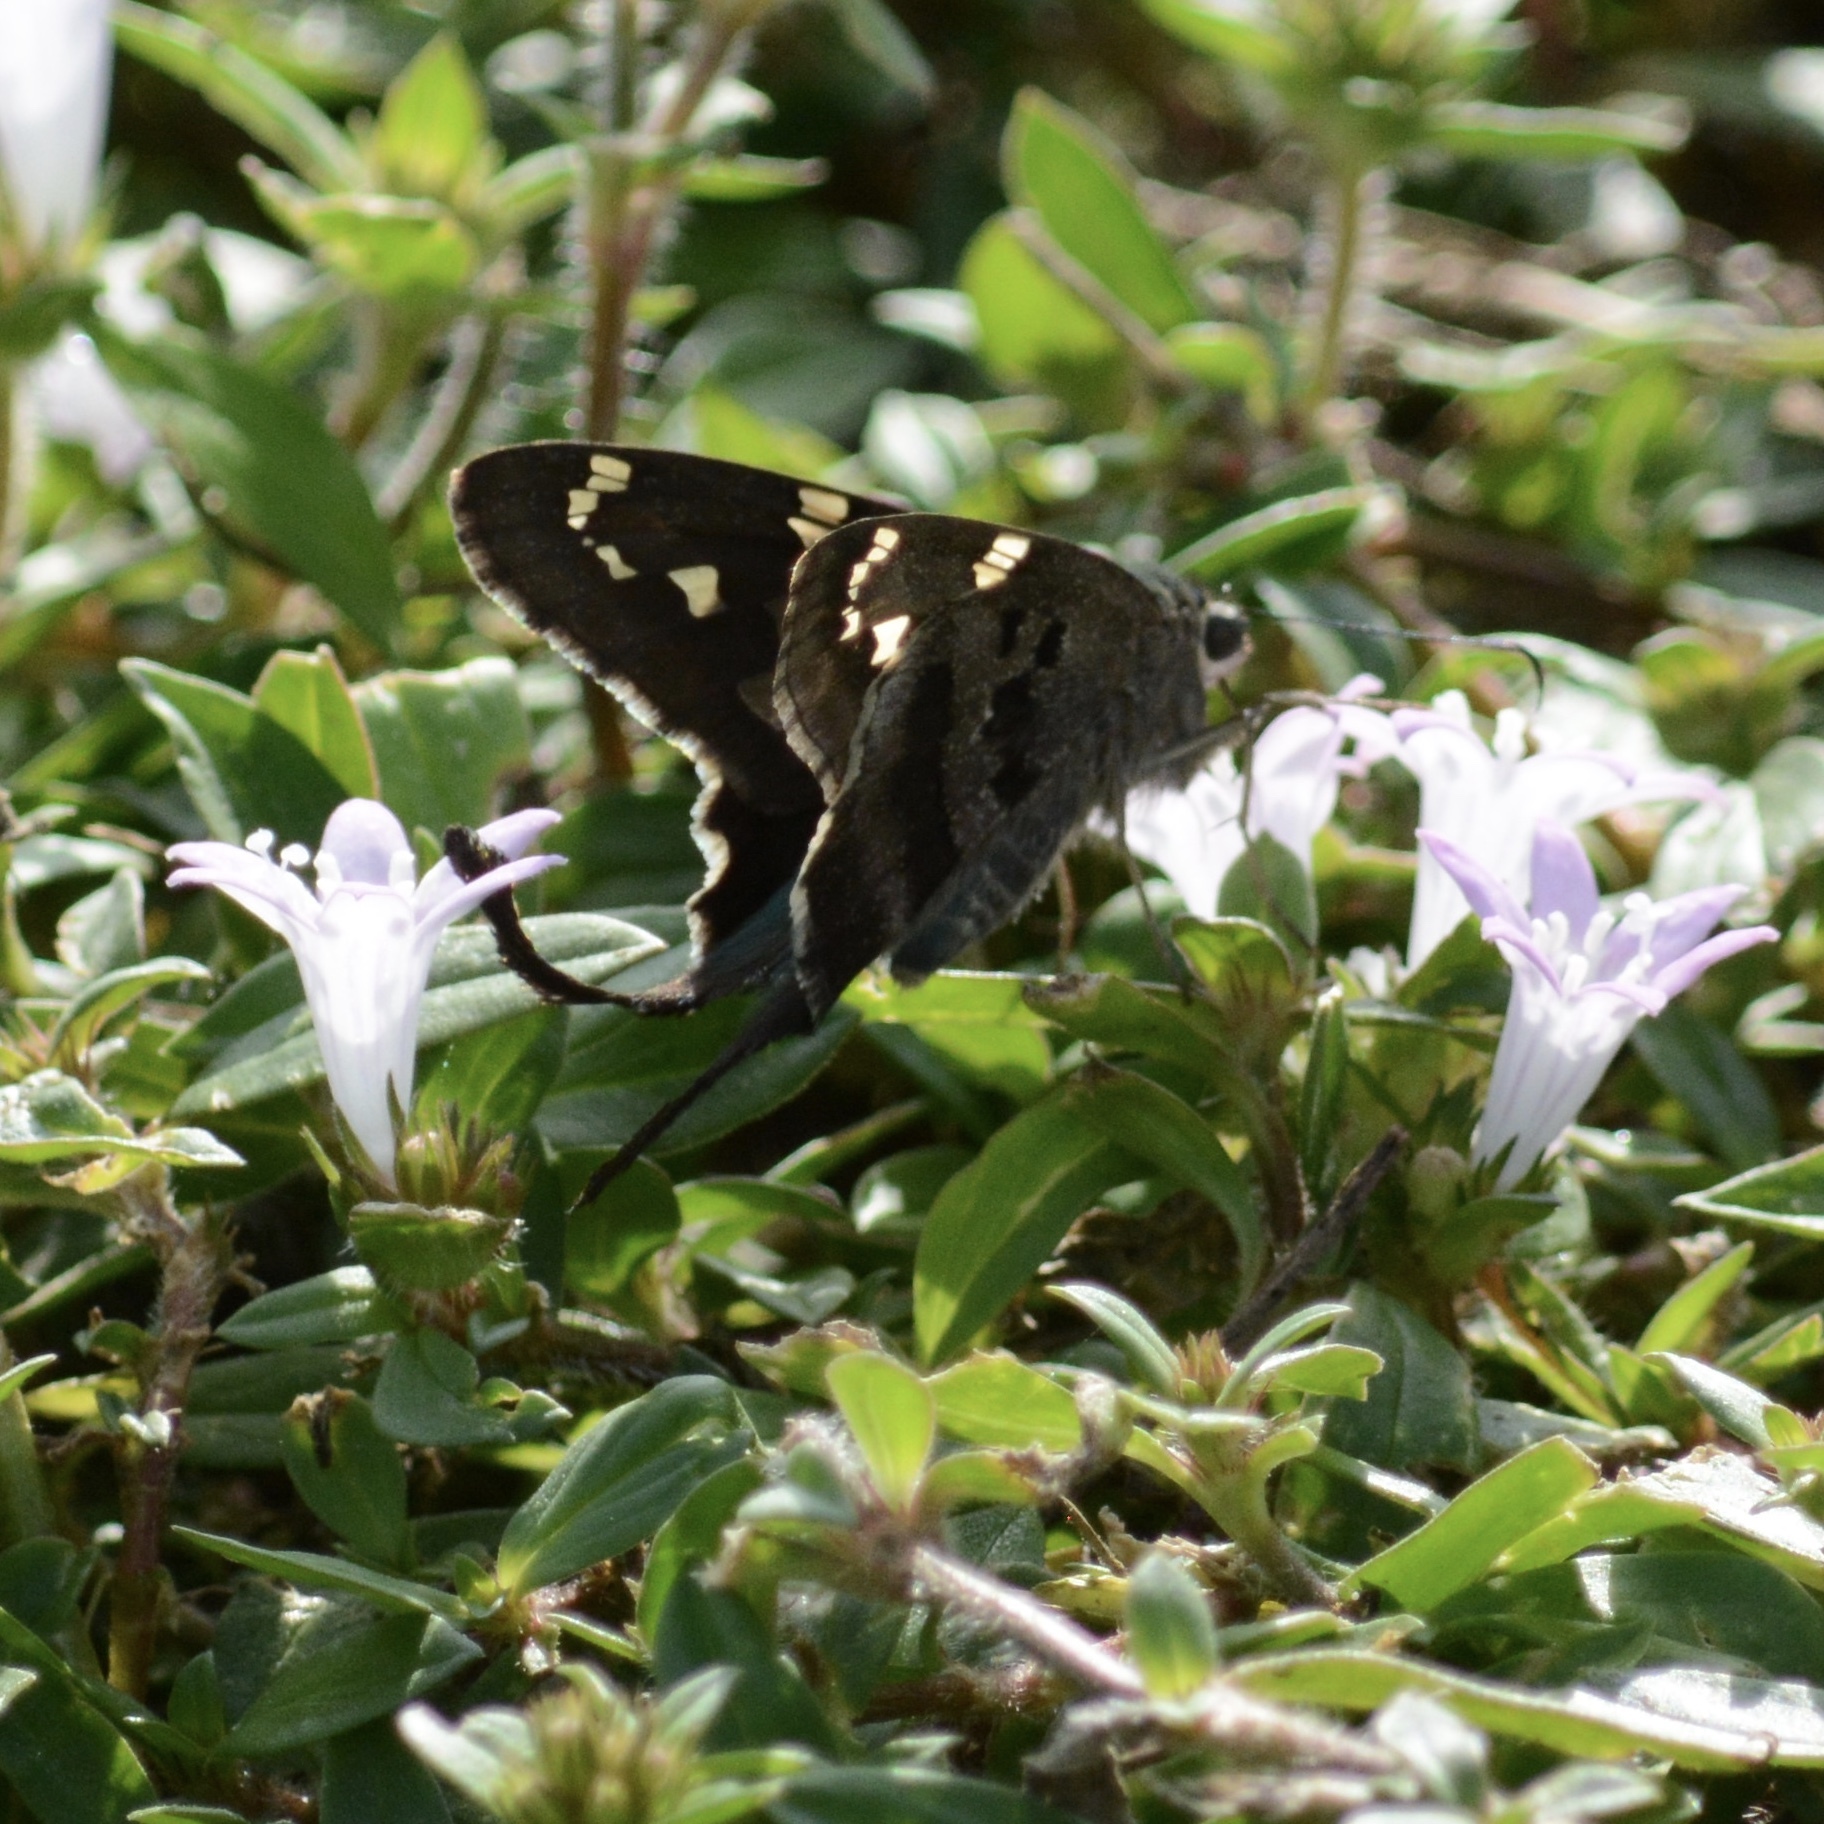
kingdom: Animalia
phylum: Arthropoda
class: Insecta
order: Lepidoptera
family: Hesperiidae
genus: Urbanus
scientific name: Urbanus proteus
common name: Long-tailed skipper
